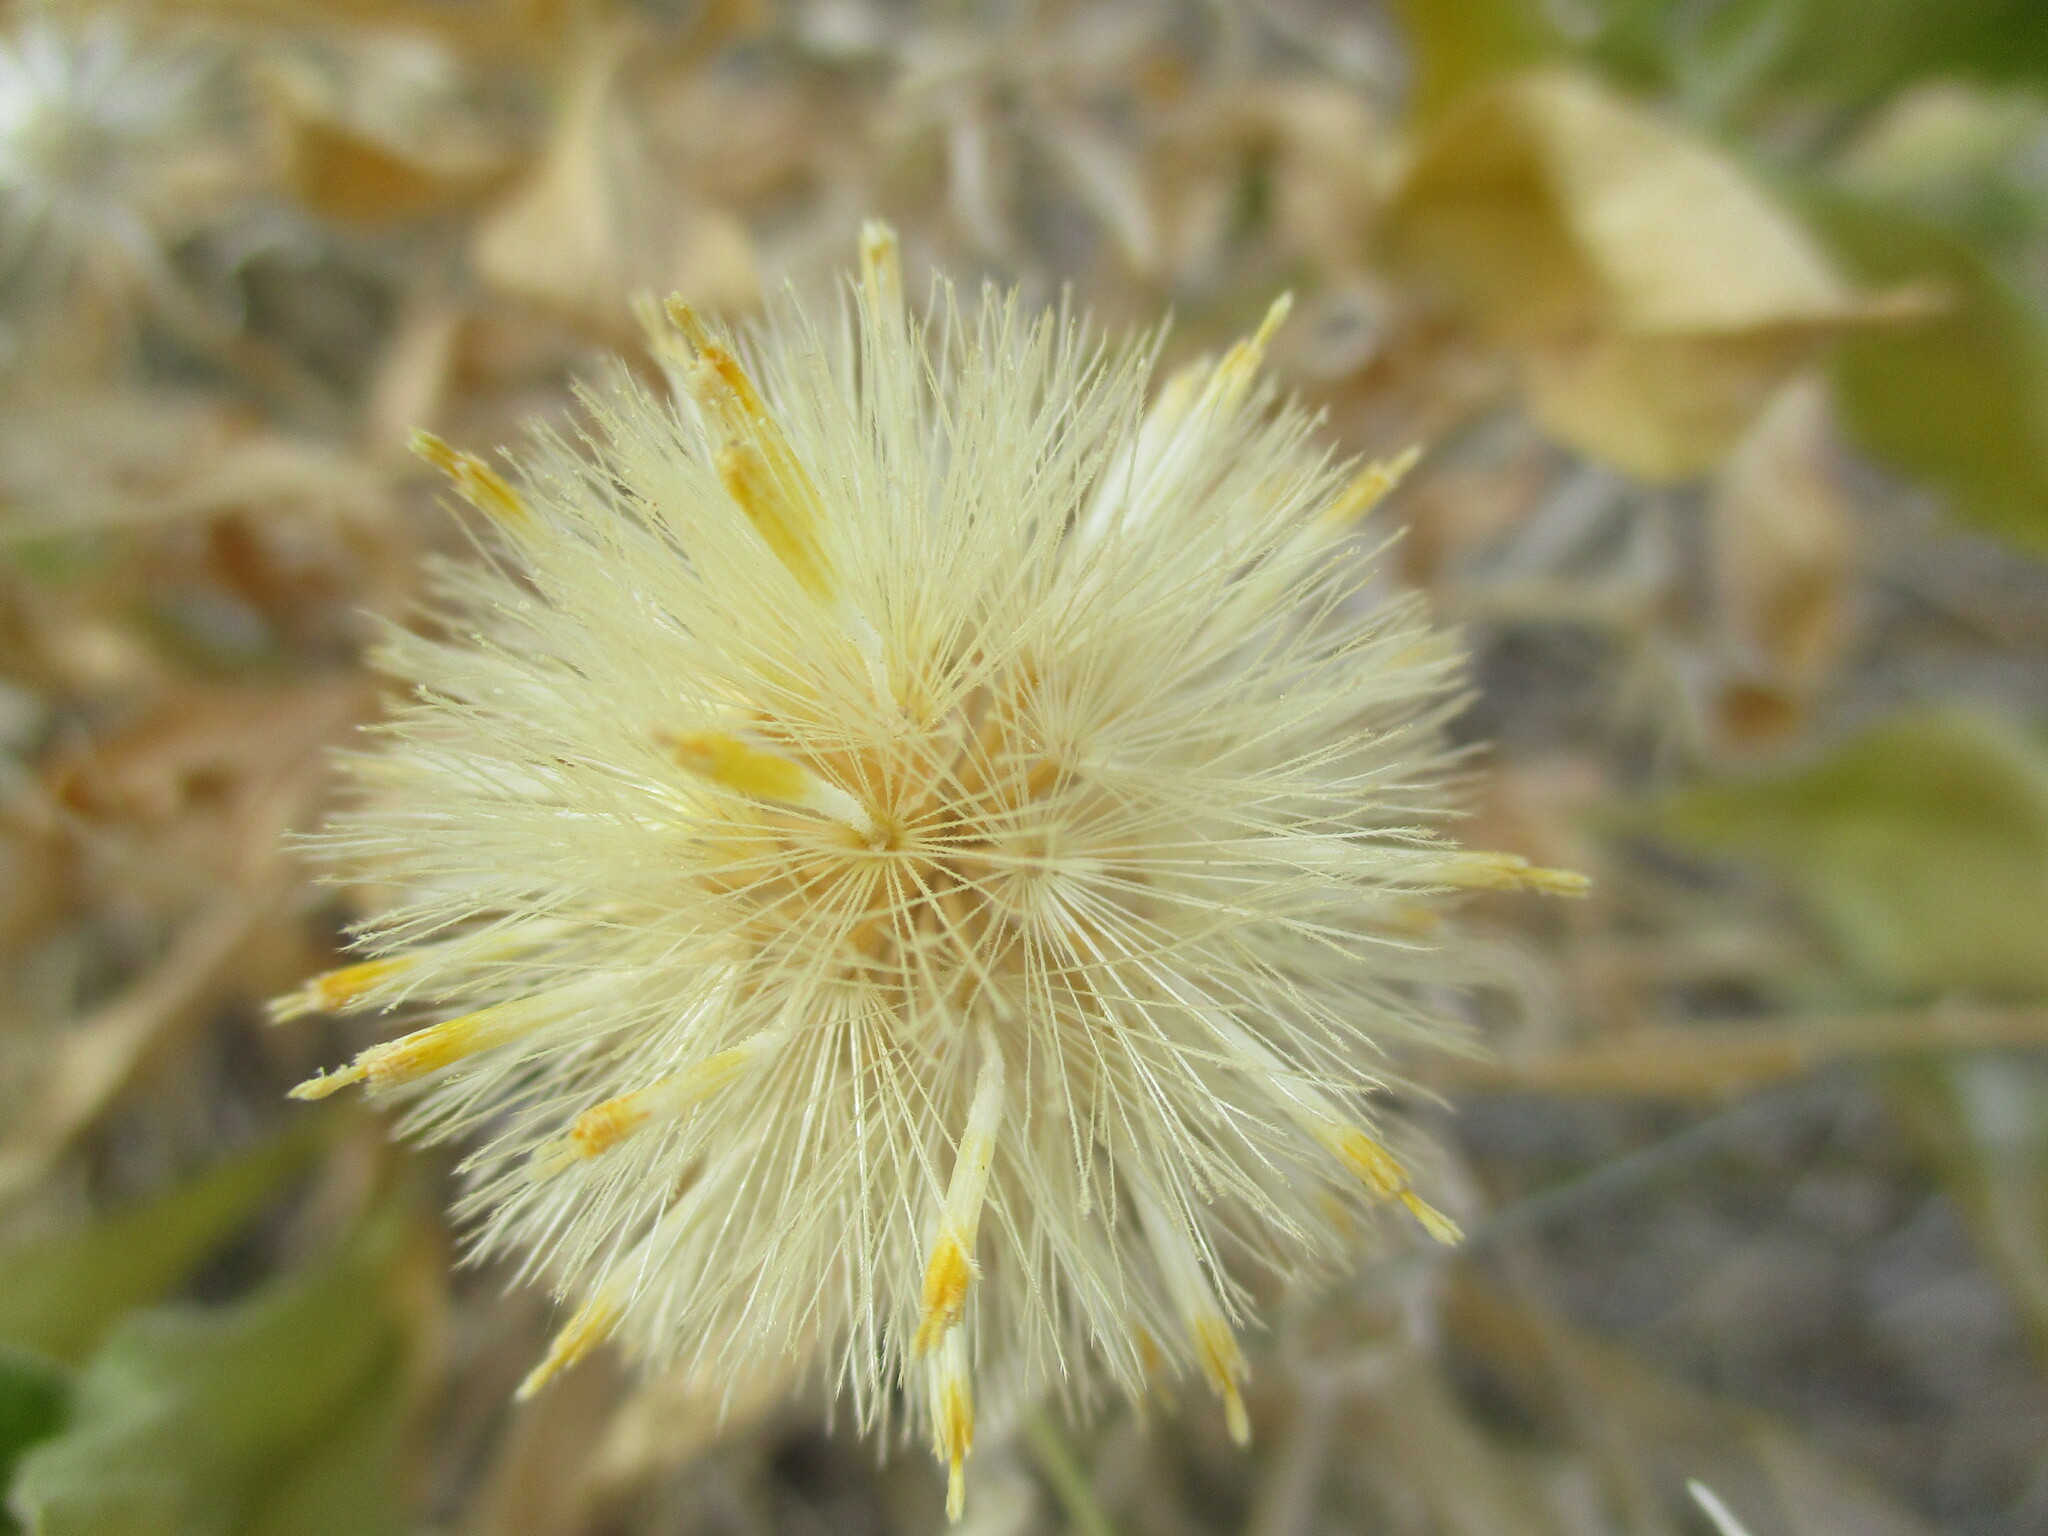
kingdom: Plantae
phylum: Tracheophyta
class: Magnoliopsida
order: Asterales
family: Asteraceae
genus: Pegolettia
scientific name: Pegolettia oxyodonta
